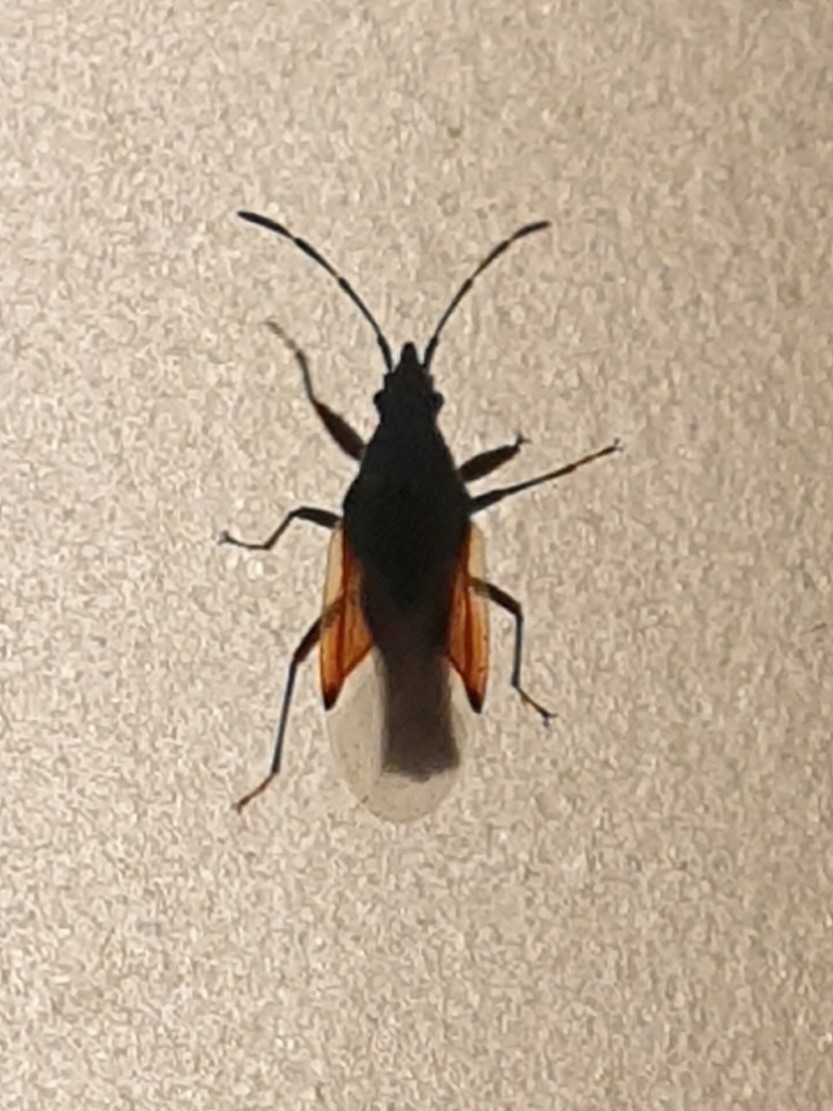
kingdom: Animalia
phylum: Arthropoda
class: Insecta
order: Hemiptera
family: Oxycarenidae
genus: Oxycarenus
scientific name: Oxycarenus lavaterae
